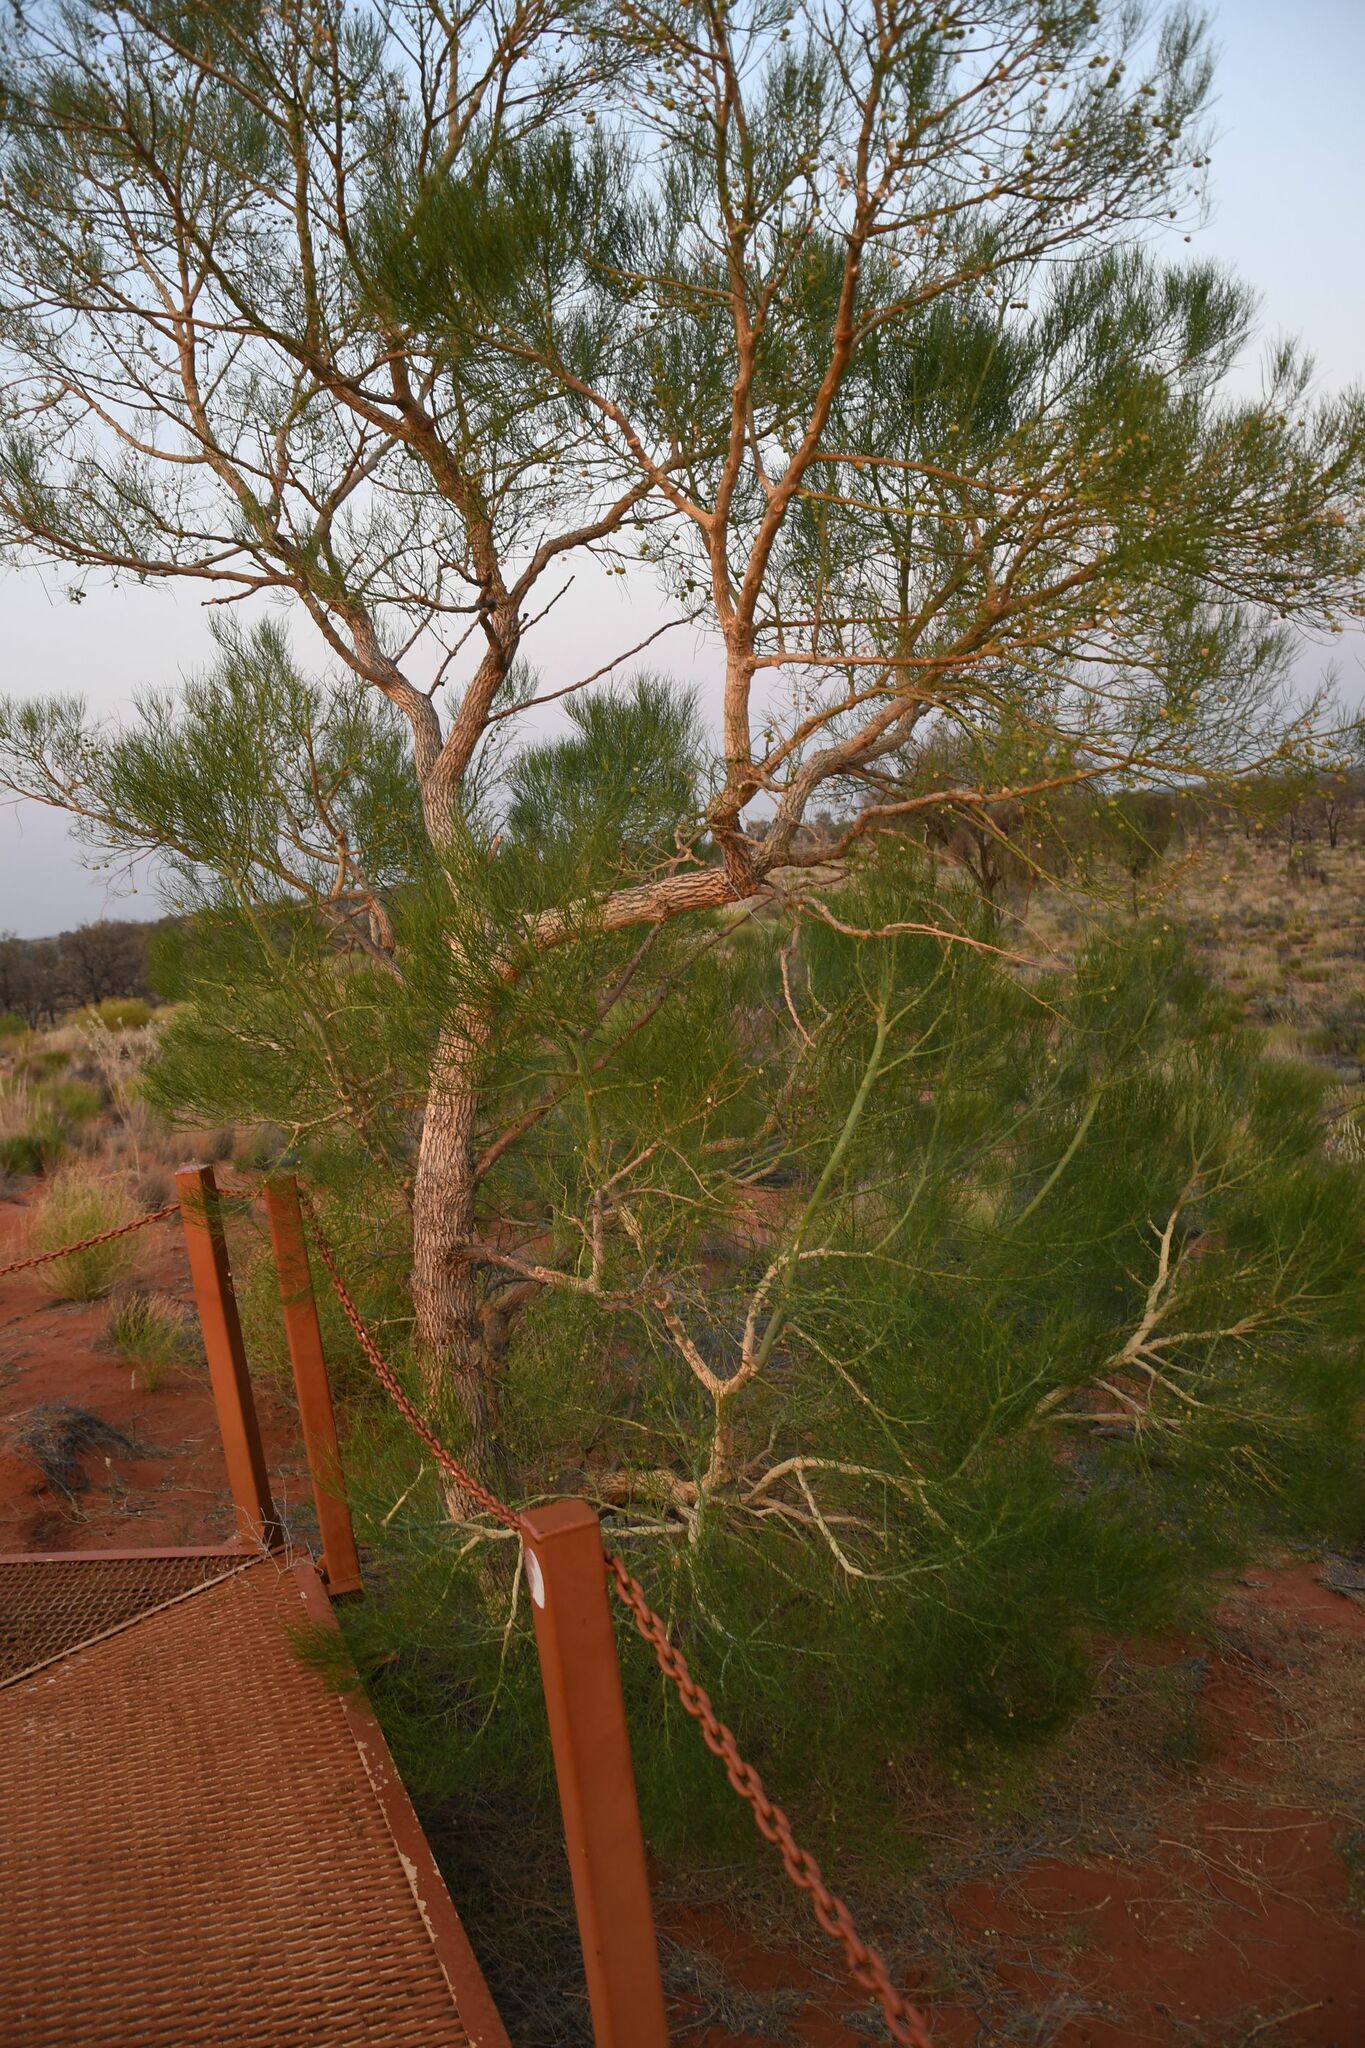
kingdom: Plantae
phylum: Tracheophyta
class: Magnoliopsida
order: Brassicales
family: Gyrostemonaceae
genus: Gyrostemon
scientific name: Gyrostemon ramulosus
